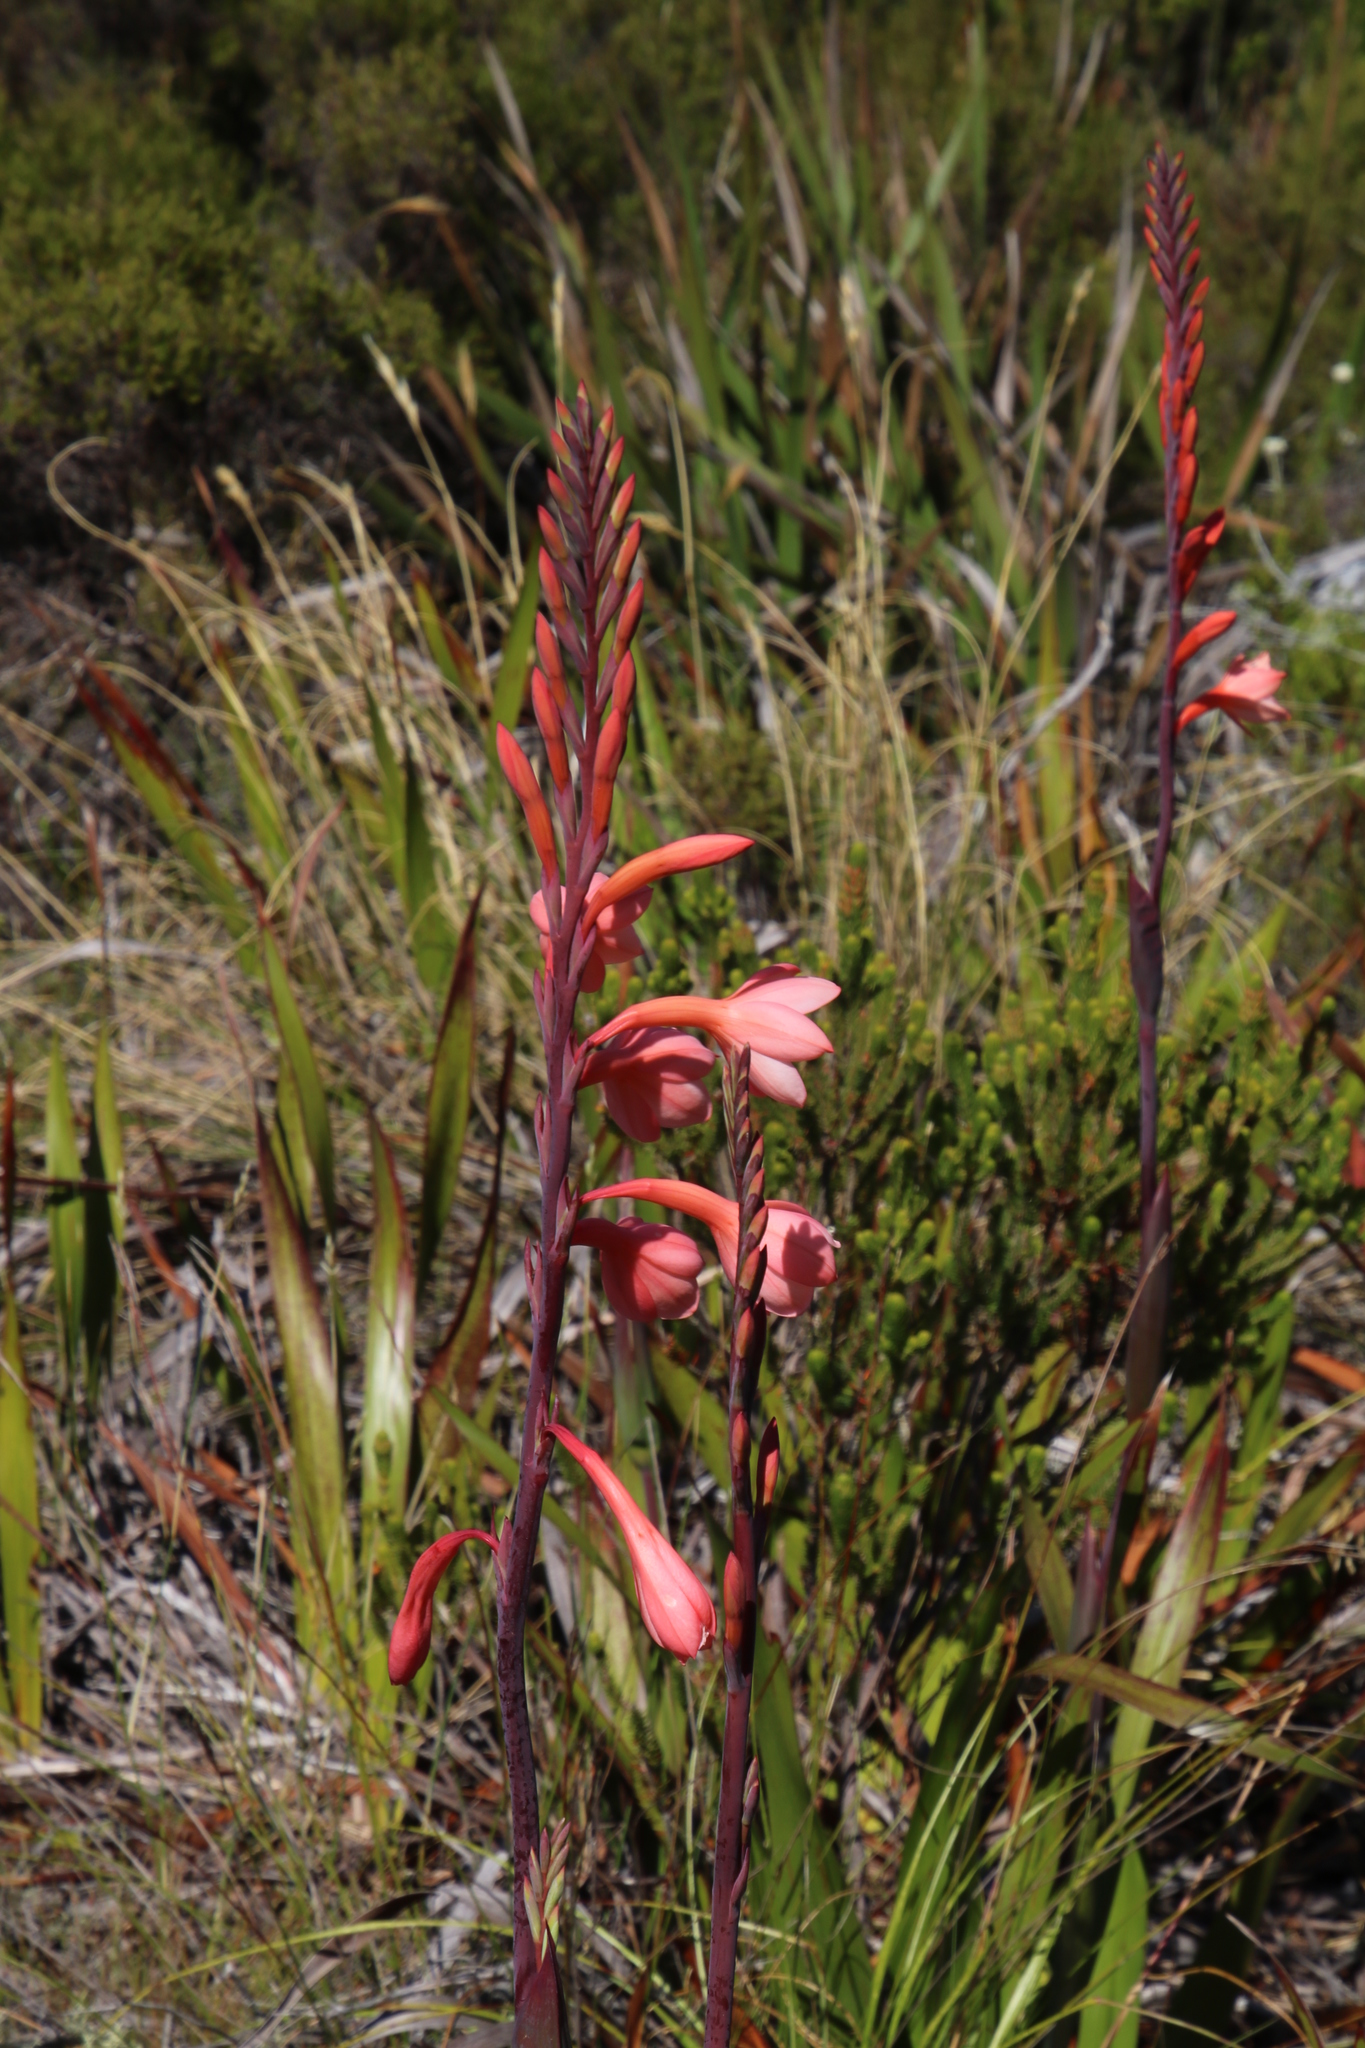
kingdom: Plantae
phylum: Tracheophyta
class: Liliopsida
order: Asparagales
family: Iridaceae
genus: Watsonia
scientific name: Watsonia tabularis
